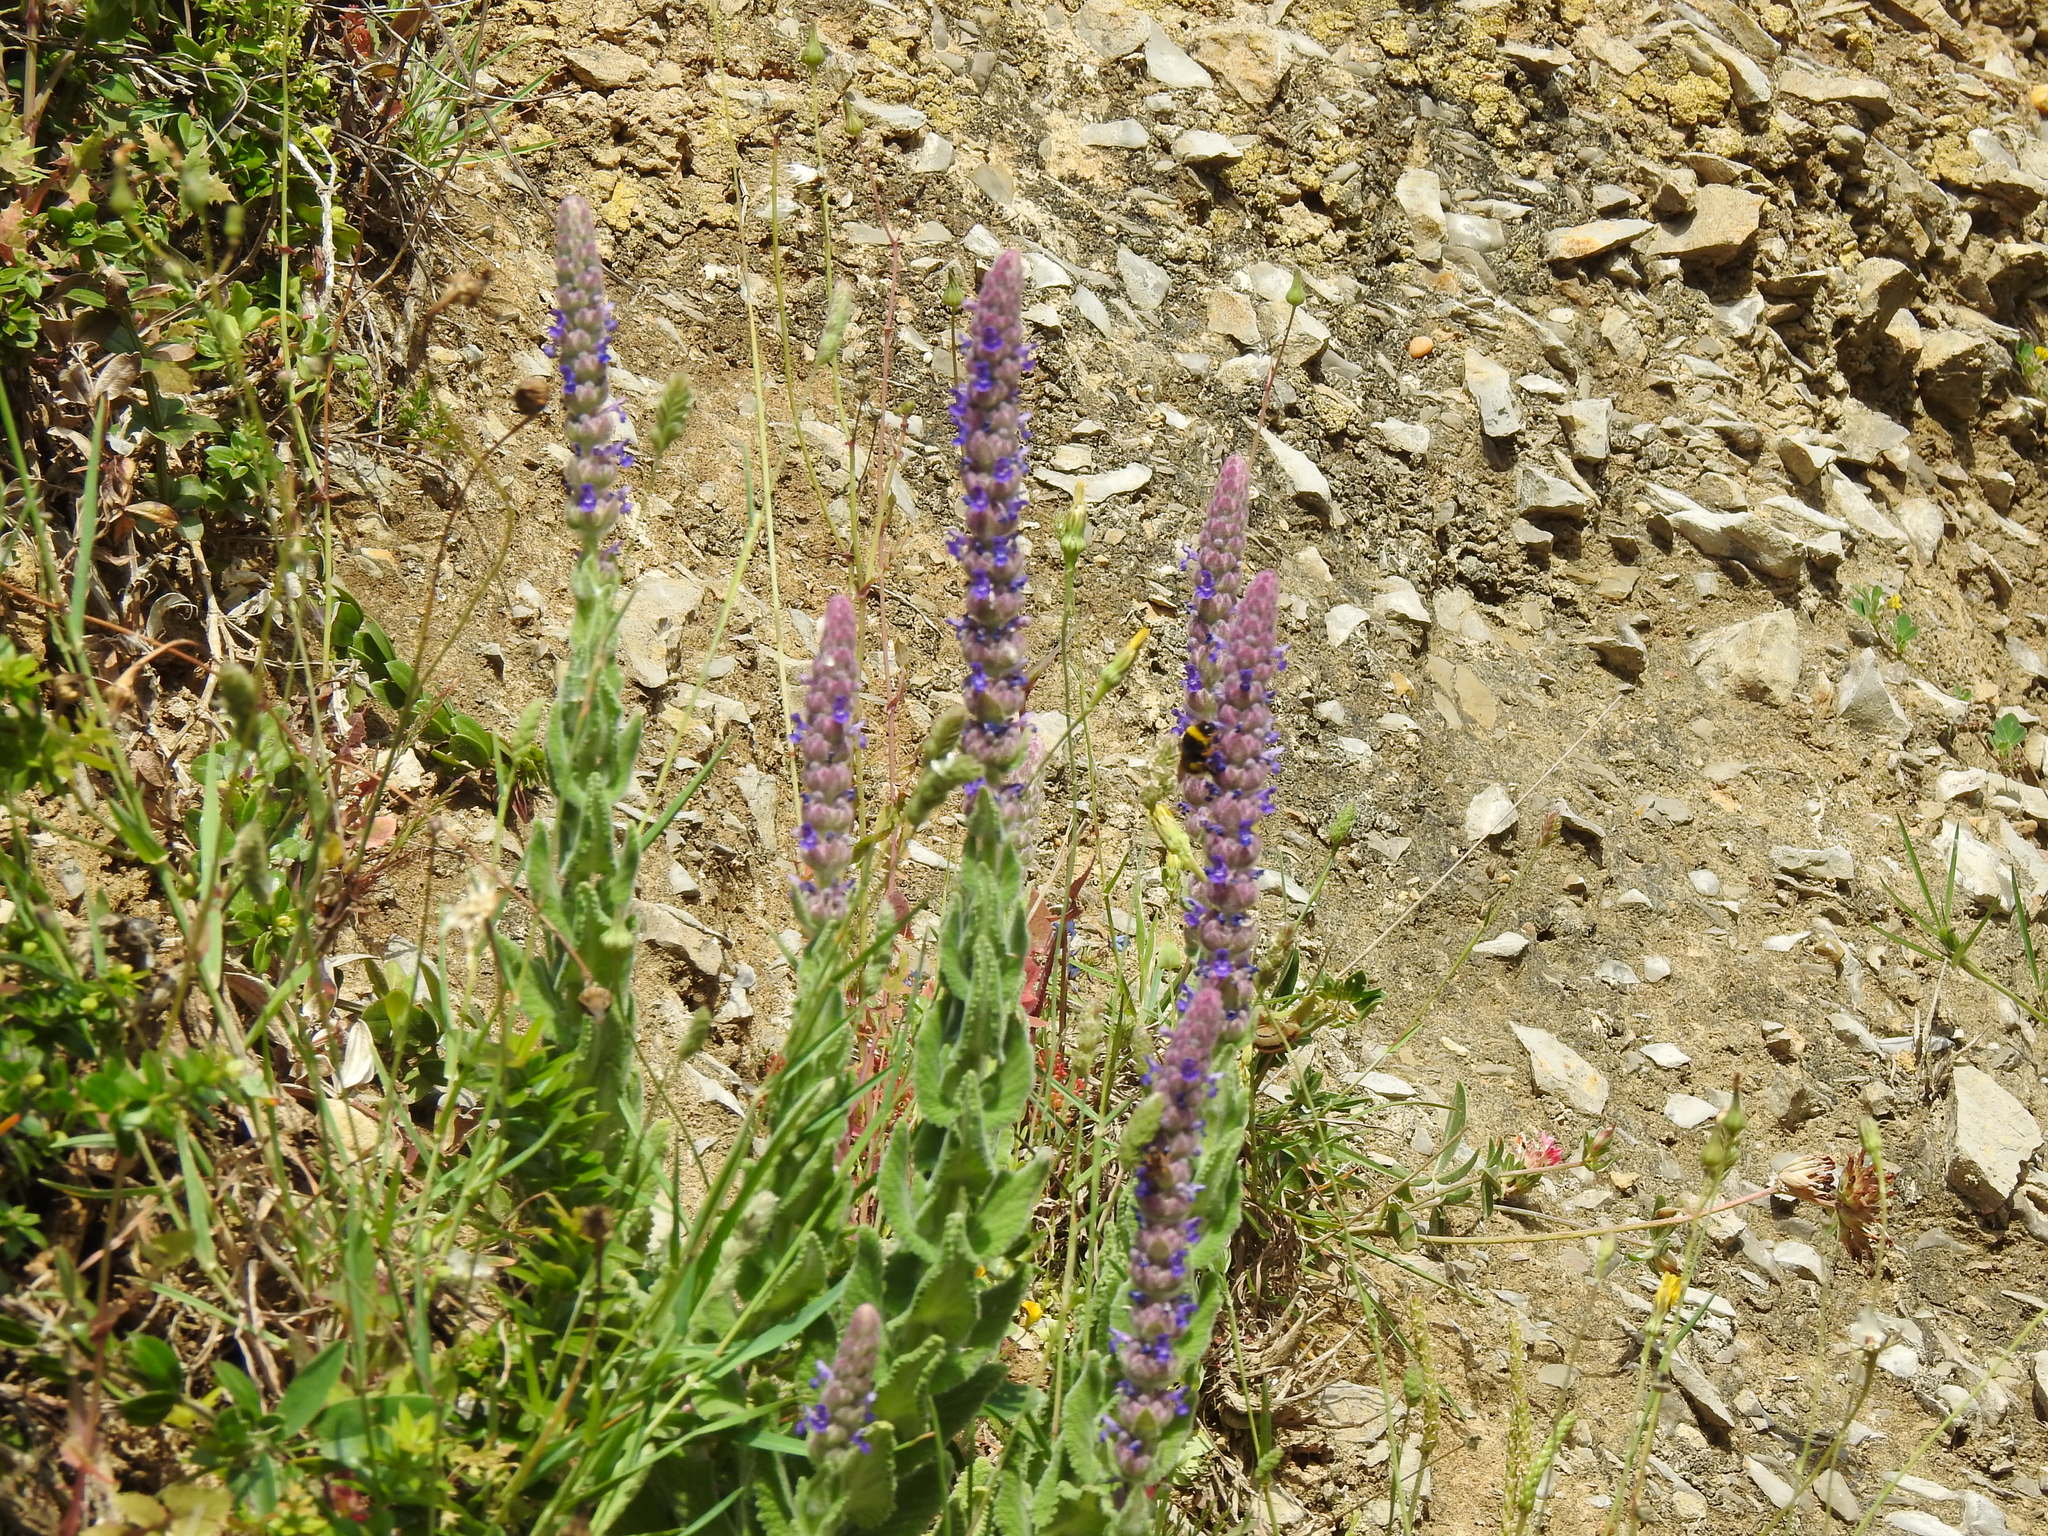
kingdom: Plantae
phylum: Tracheophyta
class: Magnoliopsida
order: Lamiales
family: Lamiaceae
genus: Nepeta
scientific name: Nepeta tuberosa
